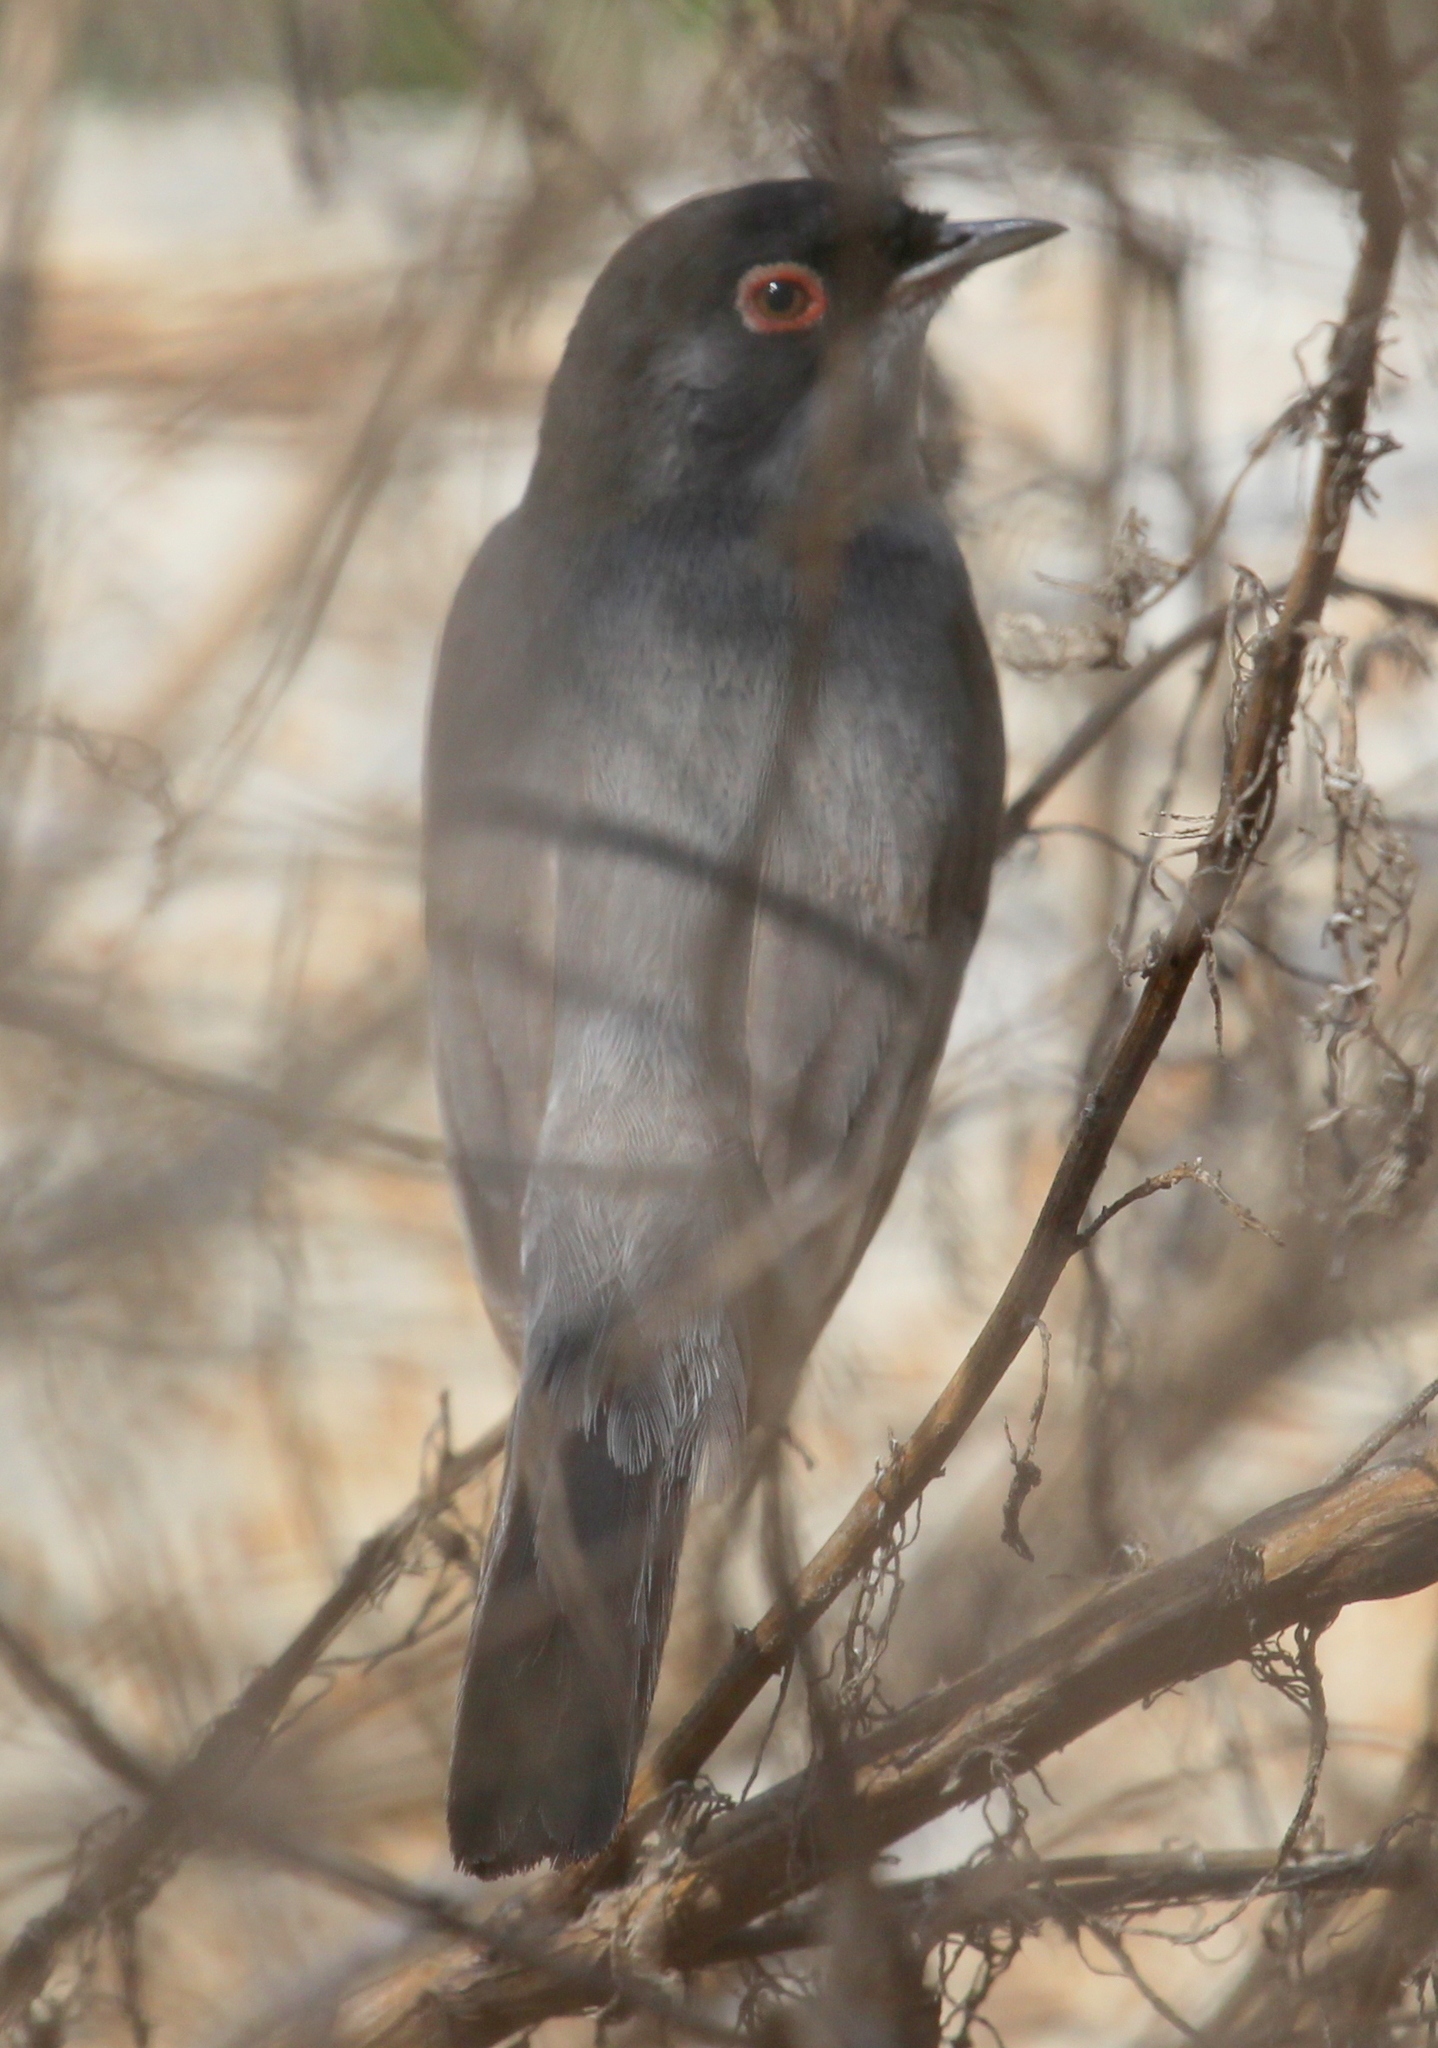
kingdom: Animalia
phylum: Chordata
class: Aves
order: Passeriformes
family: Sylviidae
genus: Sylvia
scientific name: Sylvia mystacea
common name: Menetries's warbler
